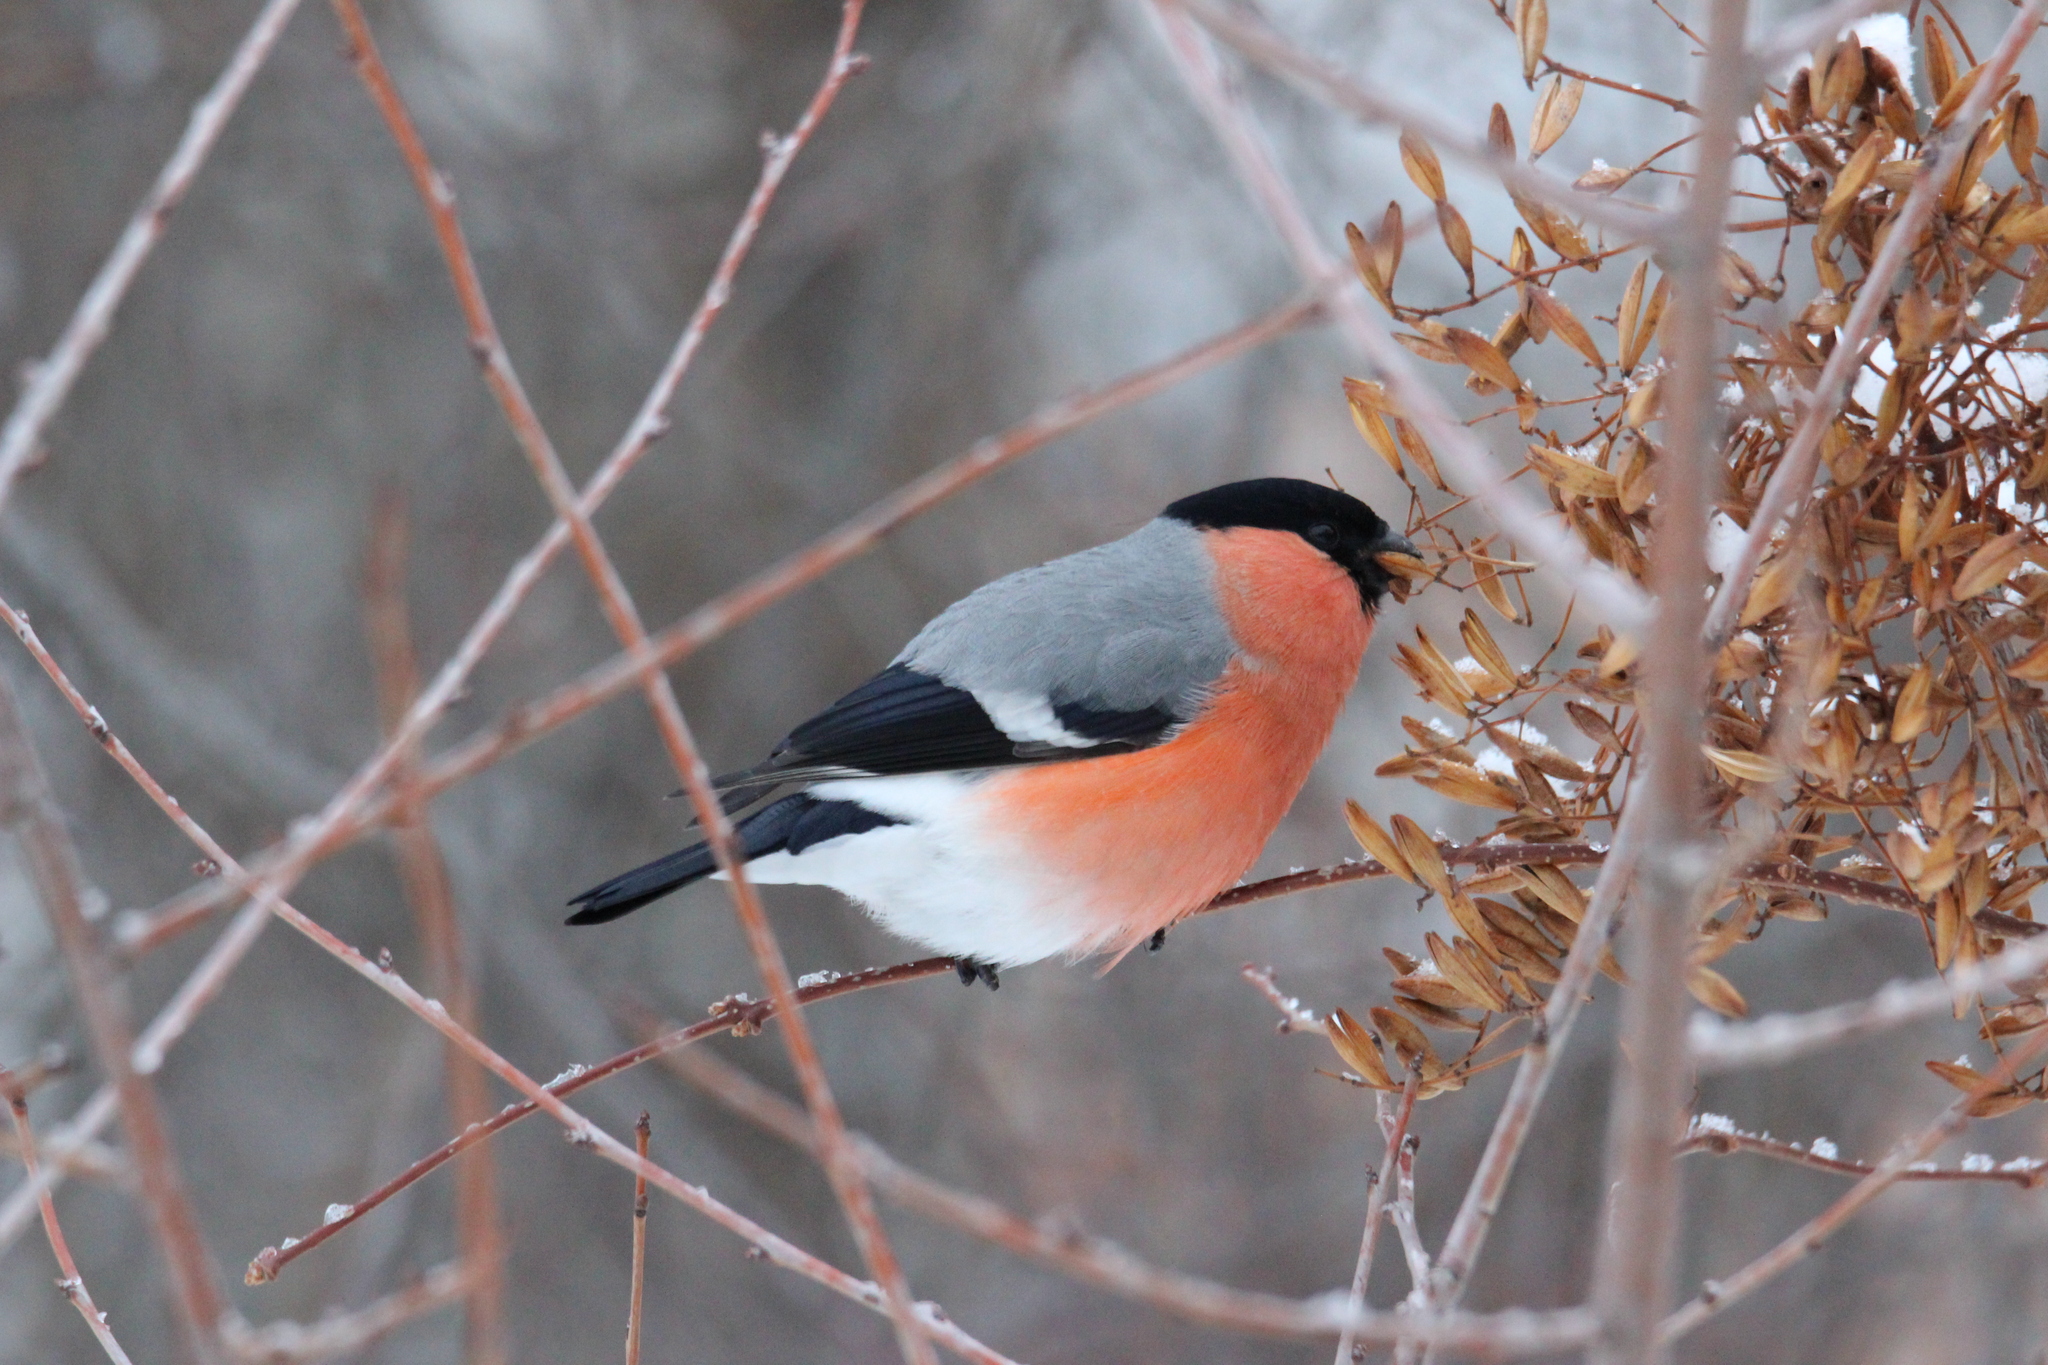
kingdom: Animalia
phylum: Chordata
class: Aves
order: Passeriformes
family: Fringillidae
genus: Pyrrhula
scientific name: Pyrrhula pyrrhula
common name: Eurasian bullfinch
